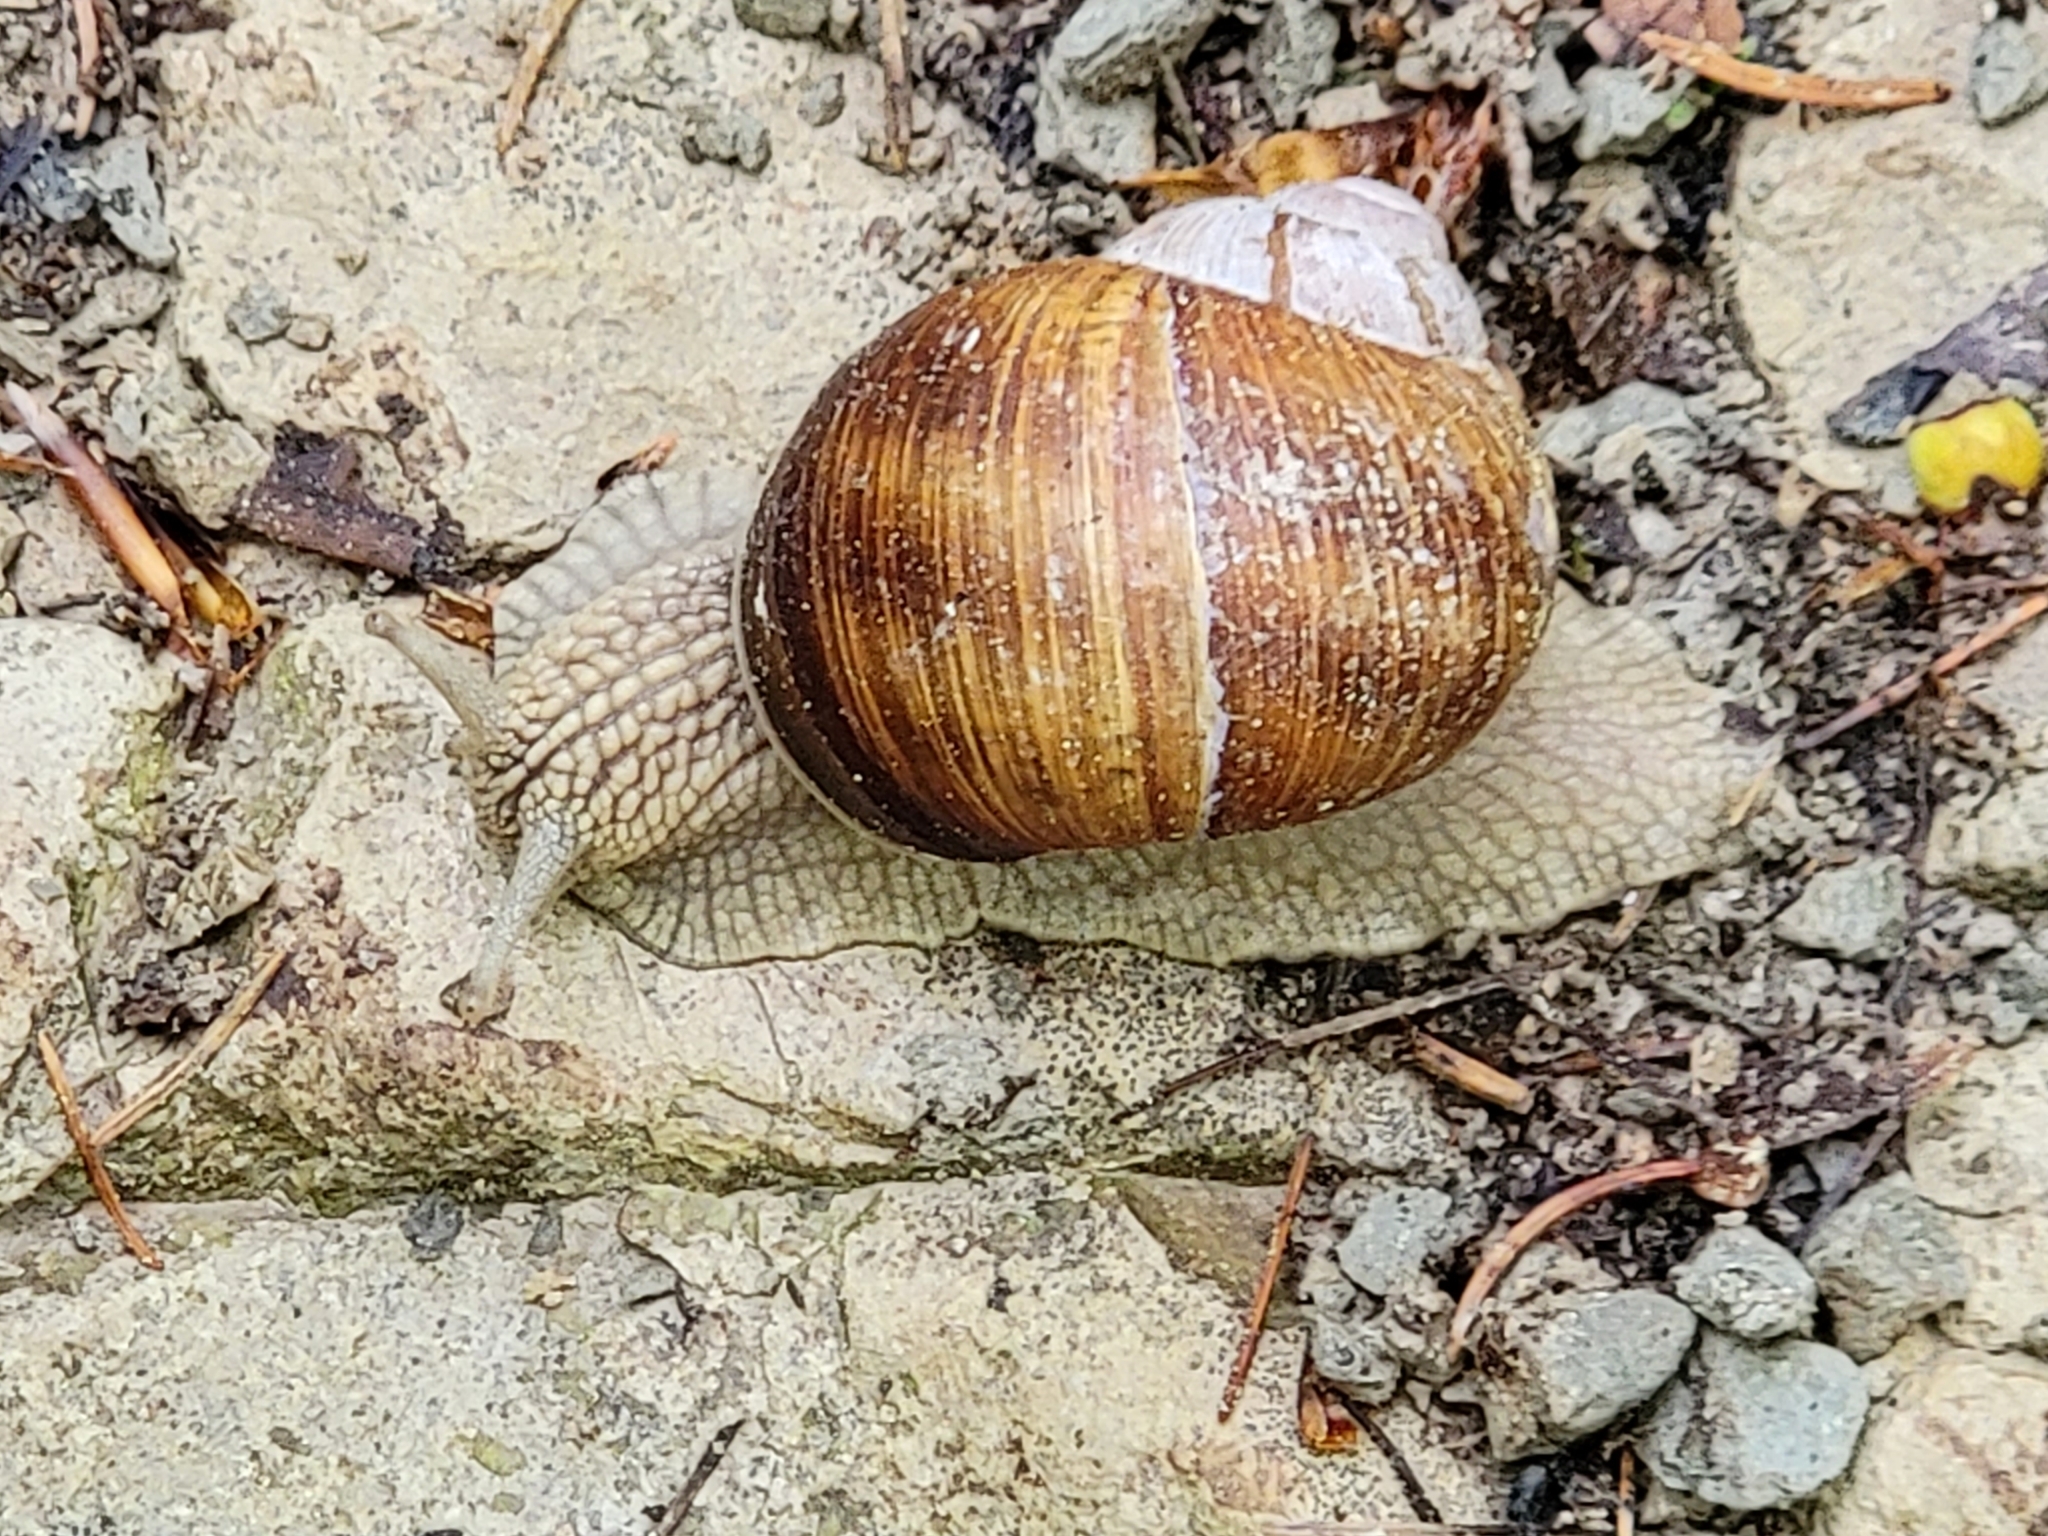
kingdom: Animalia
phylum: Mollusca
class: Gastropoda
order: Stylommatophora
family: Helicidae
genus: Helix
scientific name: Helix pomatia
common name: Roman snail
